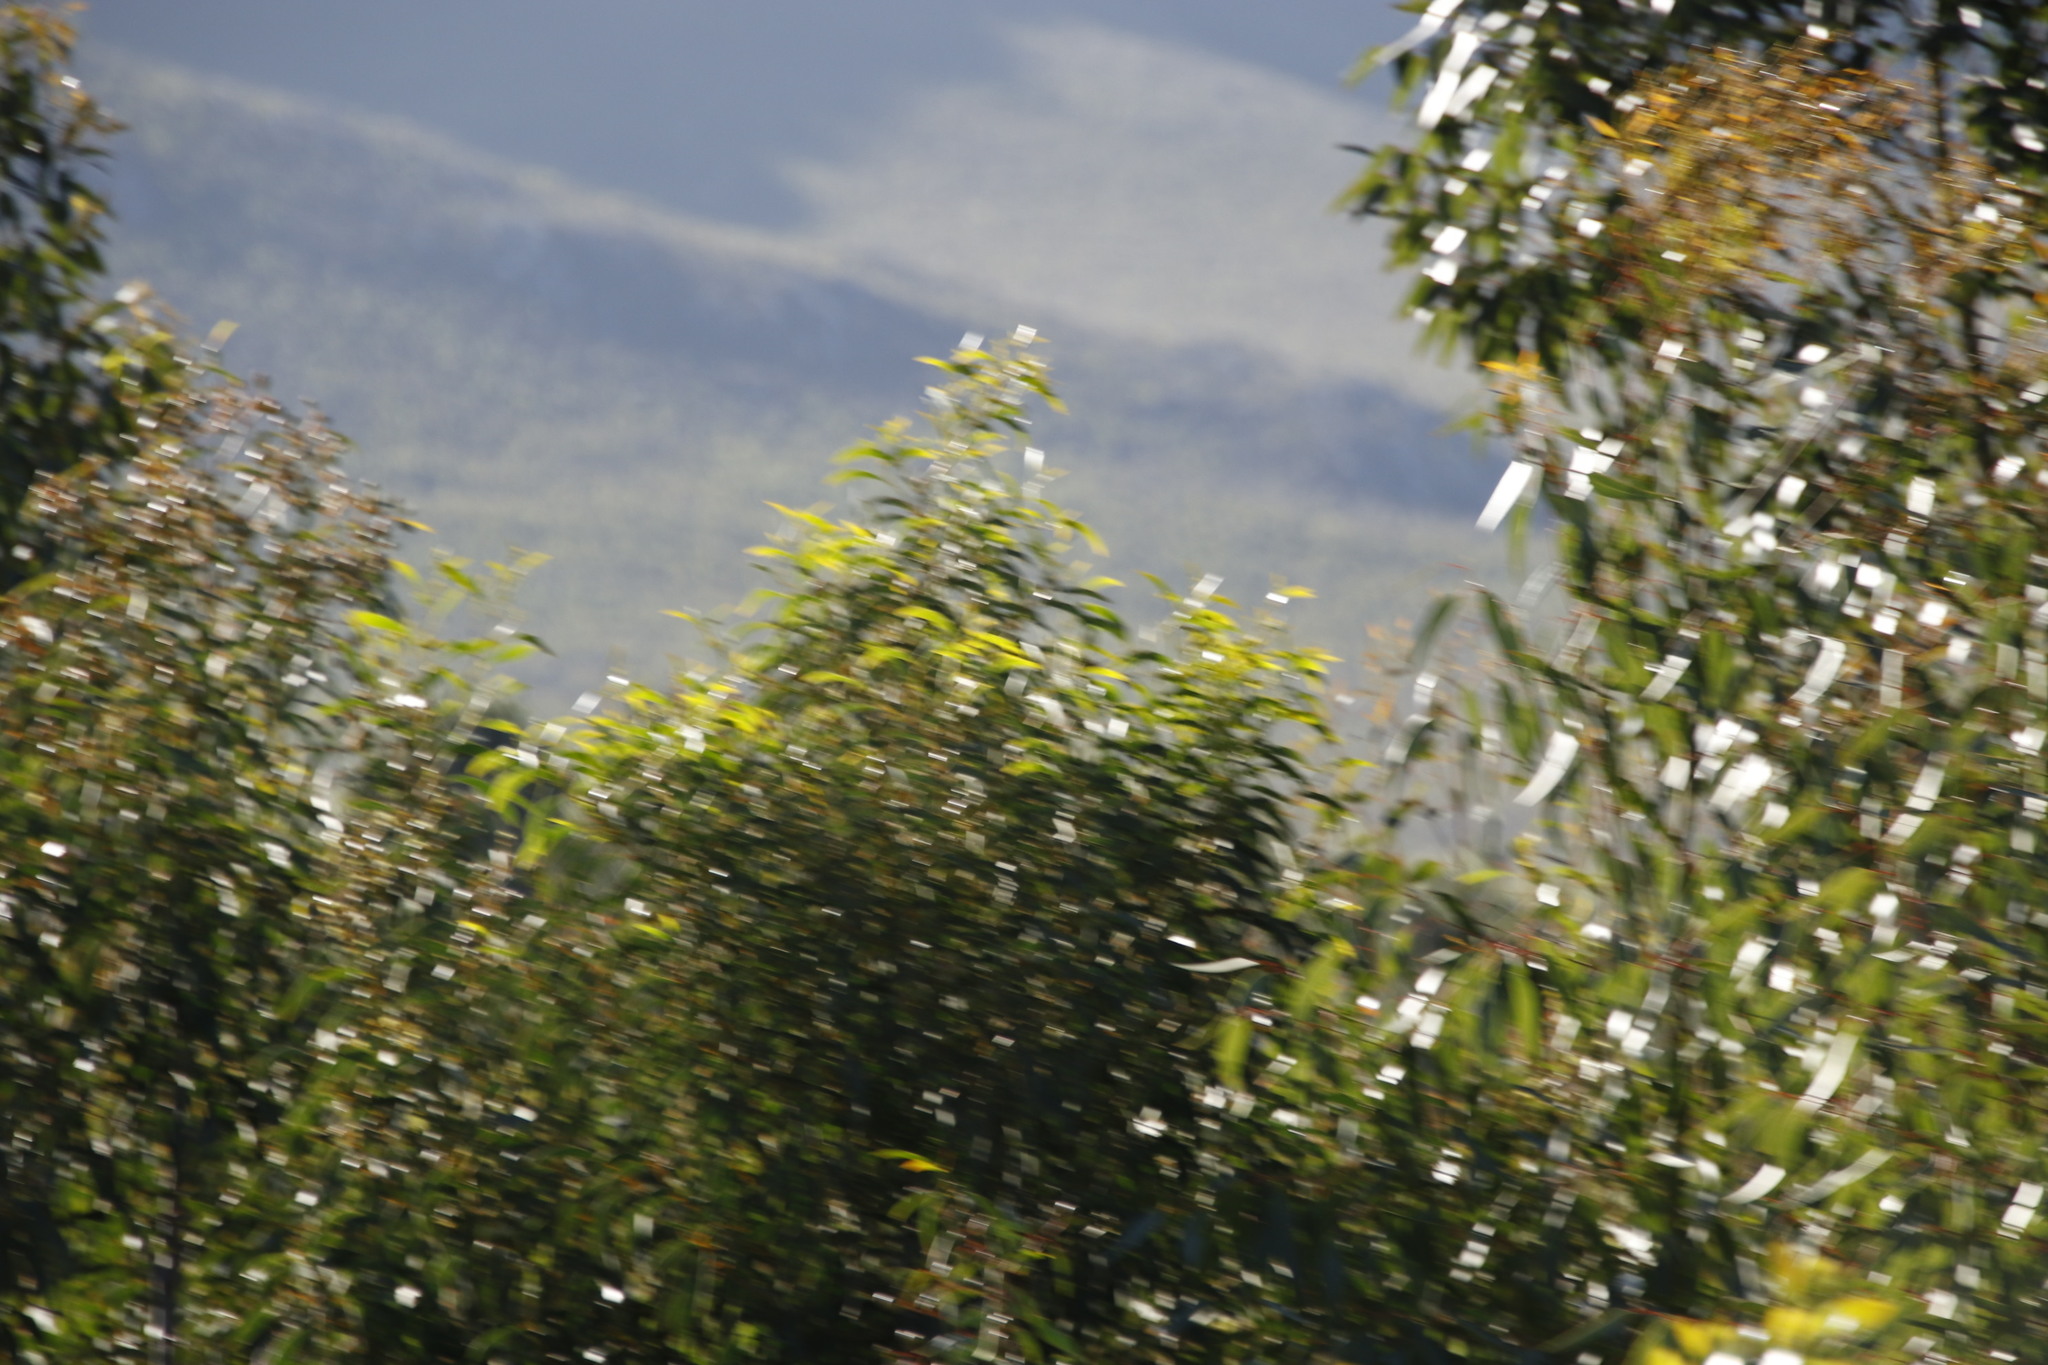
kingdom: Plantae
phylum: Tracheophyta
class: Magnoliopsida
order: Myrtales
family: Myrtaceae
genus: Eucalyptus
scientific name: Eucalyptus cladocalyx
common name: Sugargum
